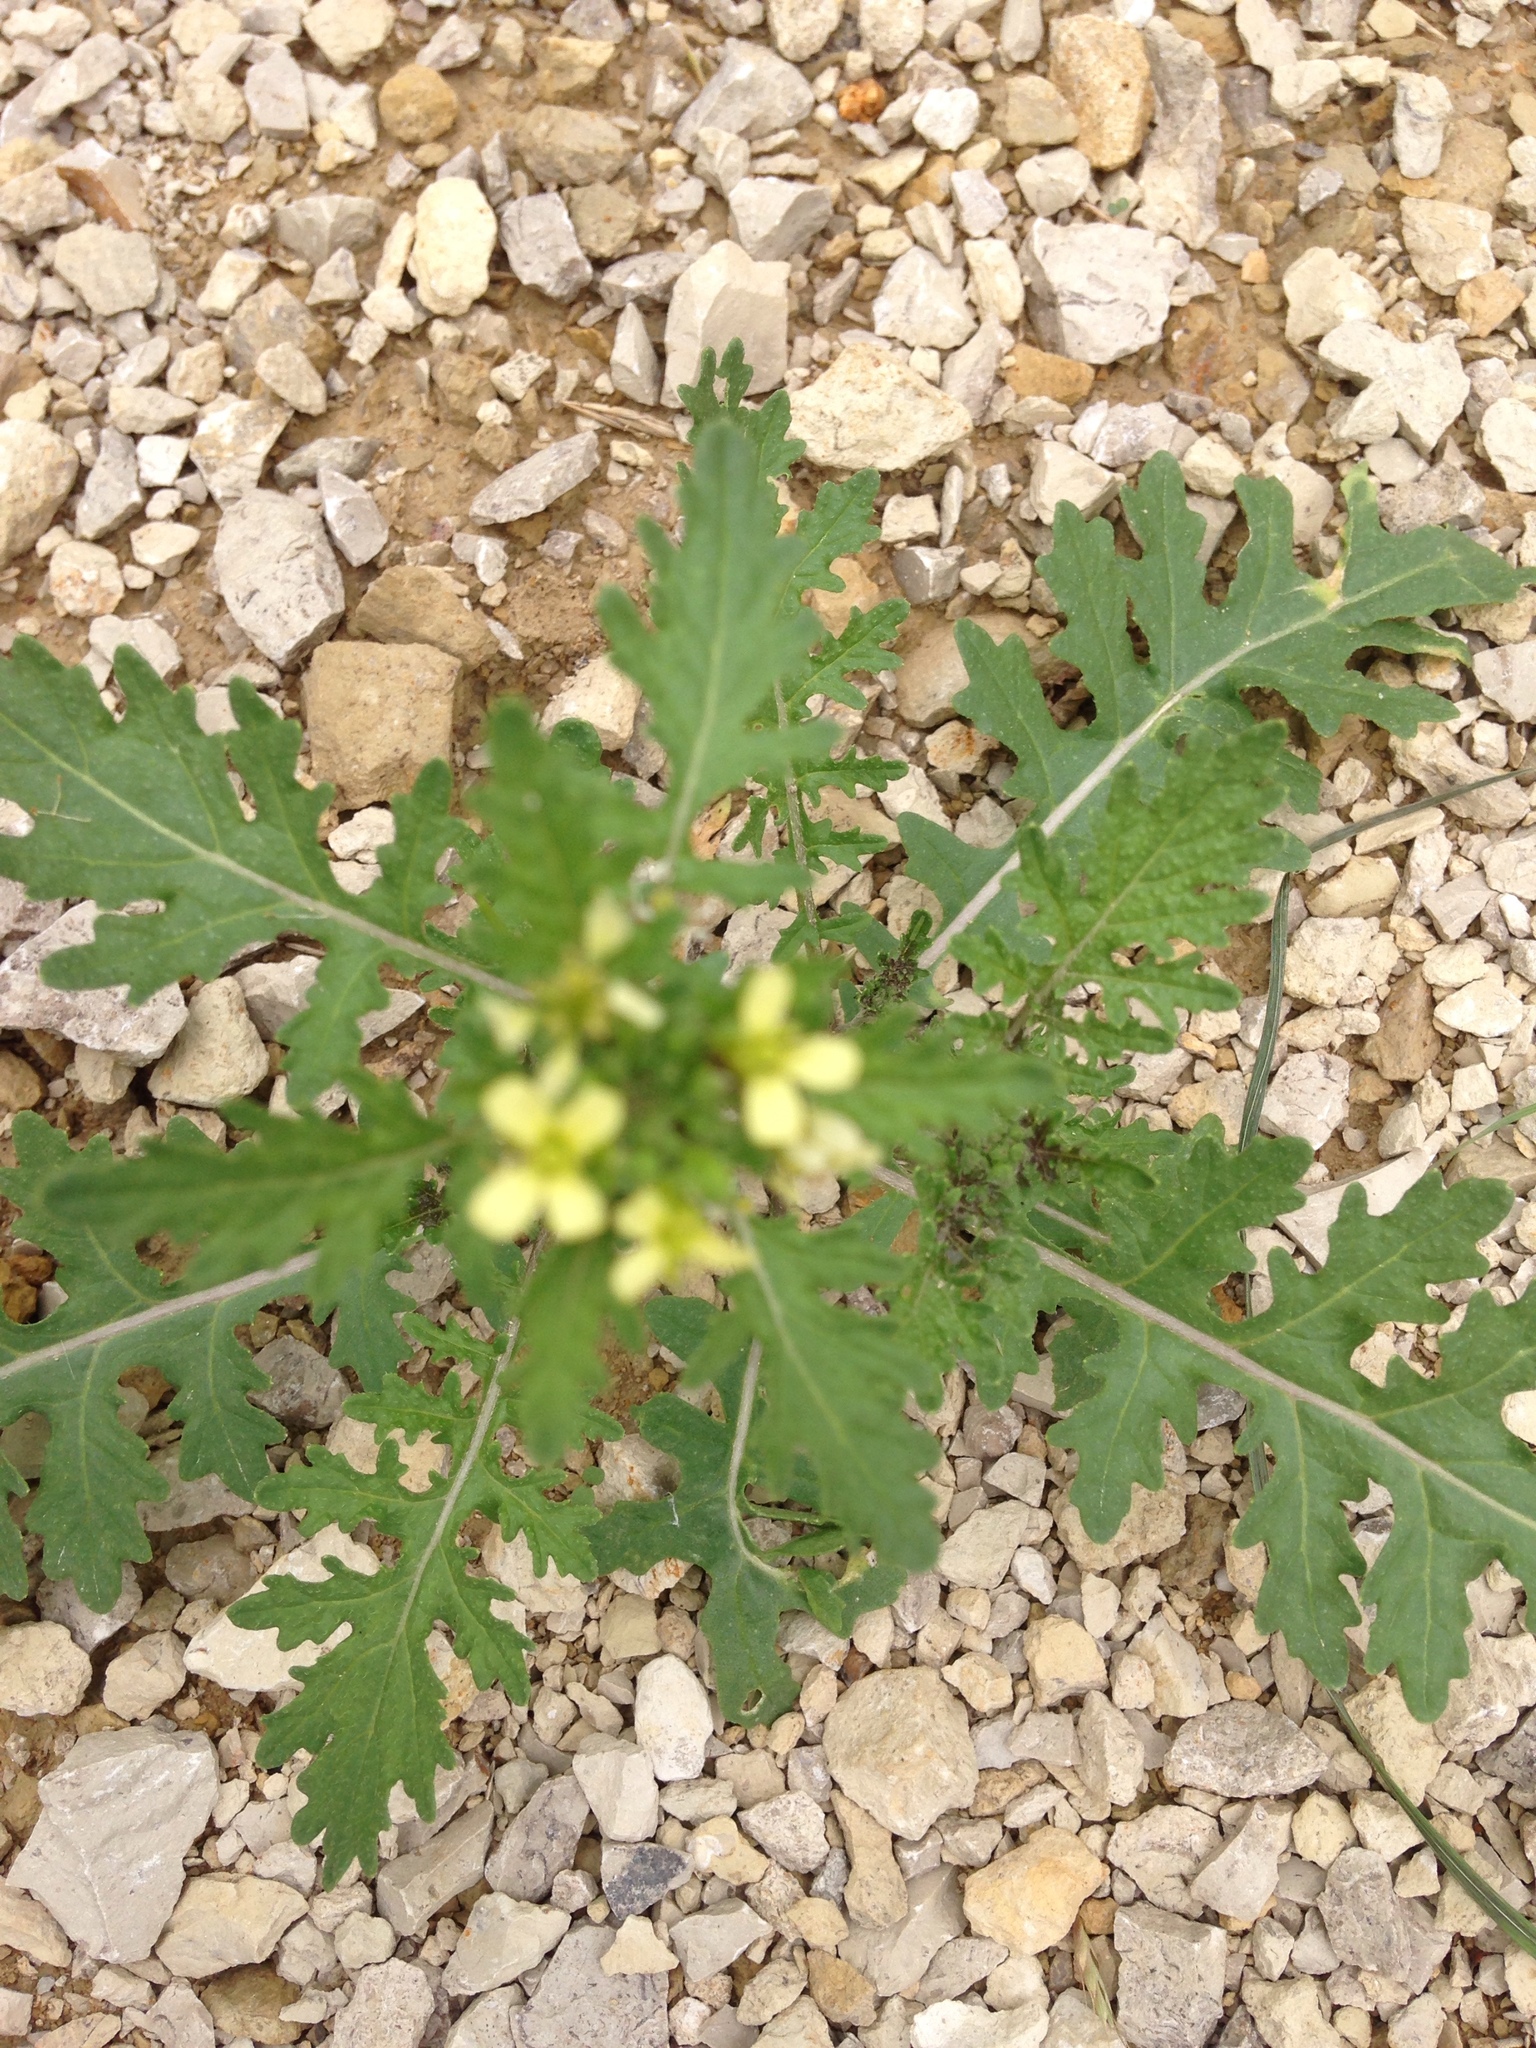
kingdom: Plantae
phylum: Tracheophyta
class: Magnoliopsida
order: Brassicales
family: Brassicaceae
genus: Erucastrum
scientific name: Erucastrum gallicum
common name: Hairy rocket
